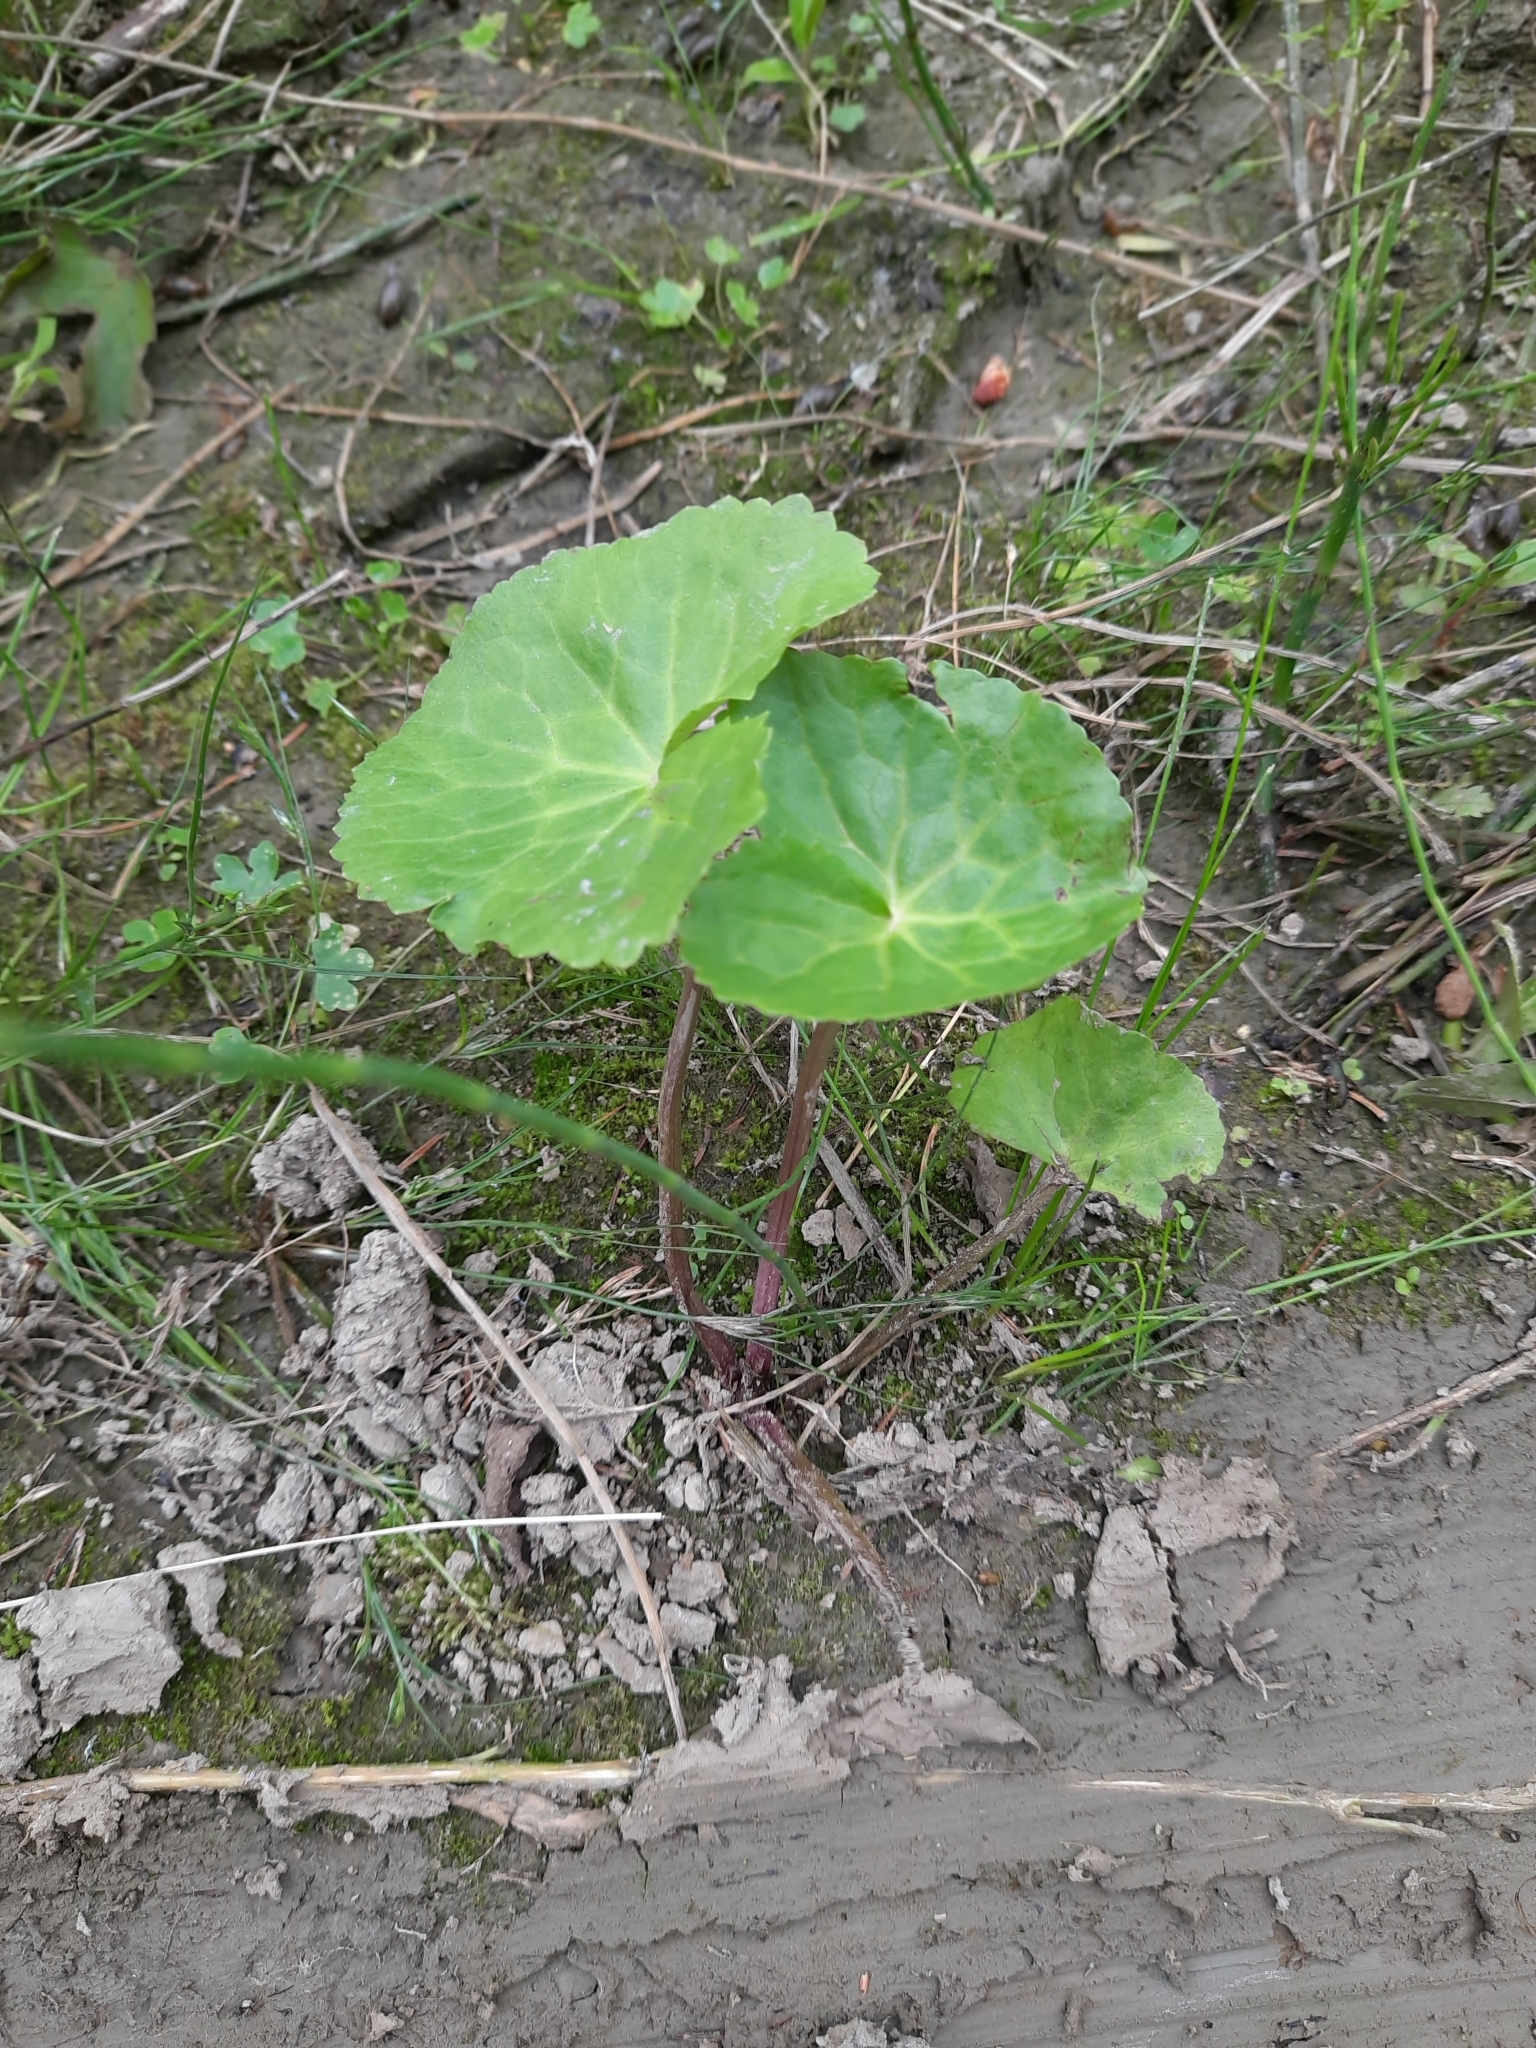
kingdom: Plantae
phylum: Tracheophyta
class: Magnoliopsida
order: Ranunculales
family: Ranunculaceae
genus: Caltha
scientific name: Caltha palustris
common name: Marsh marigold
